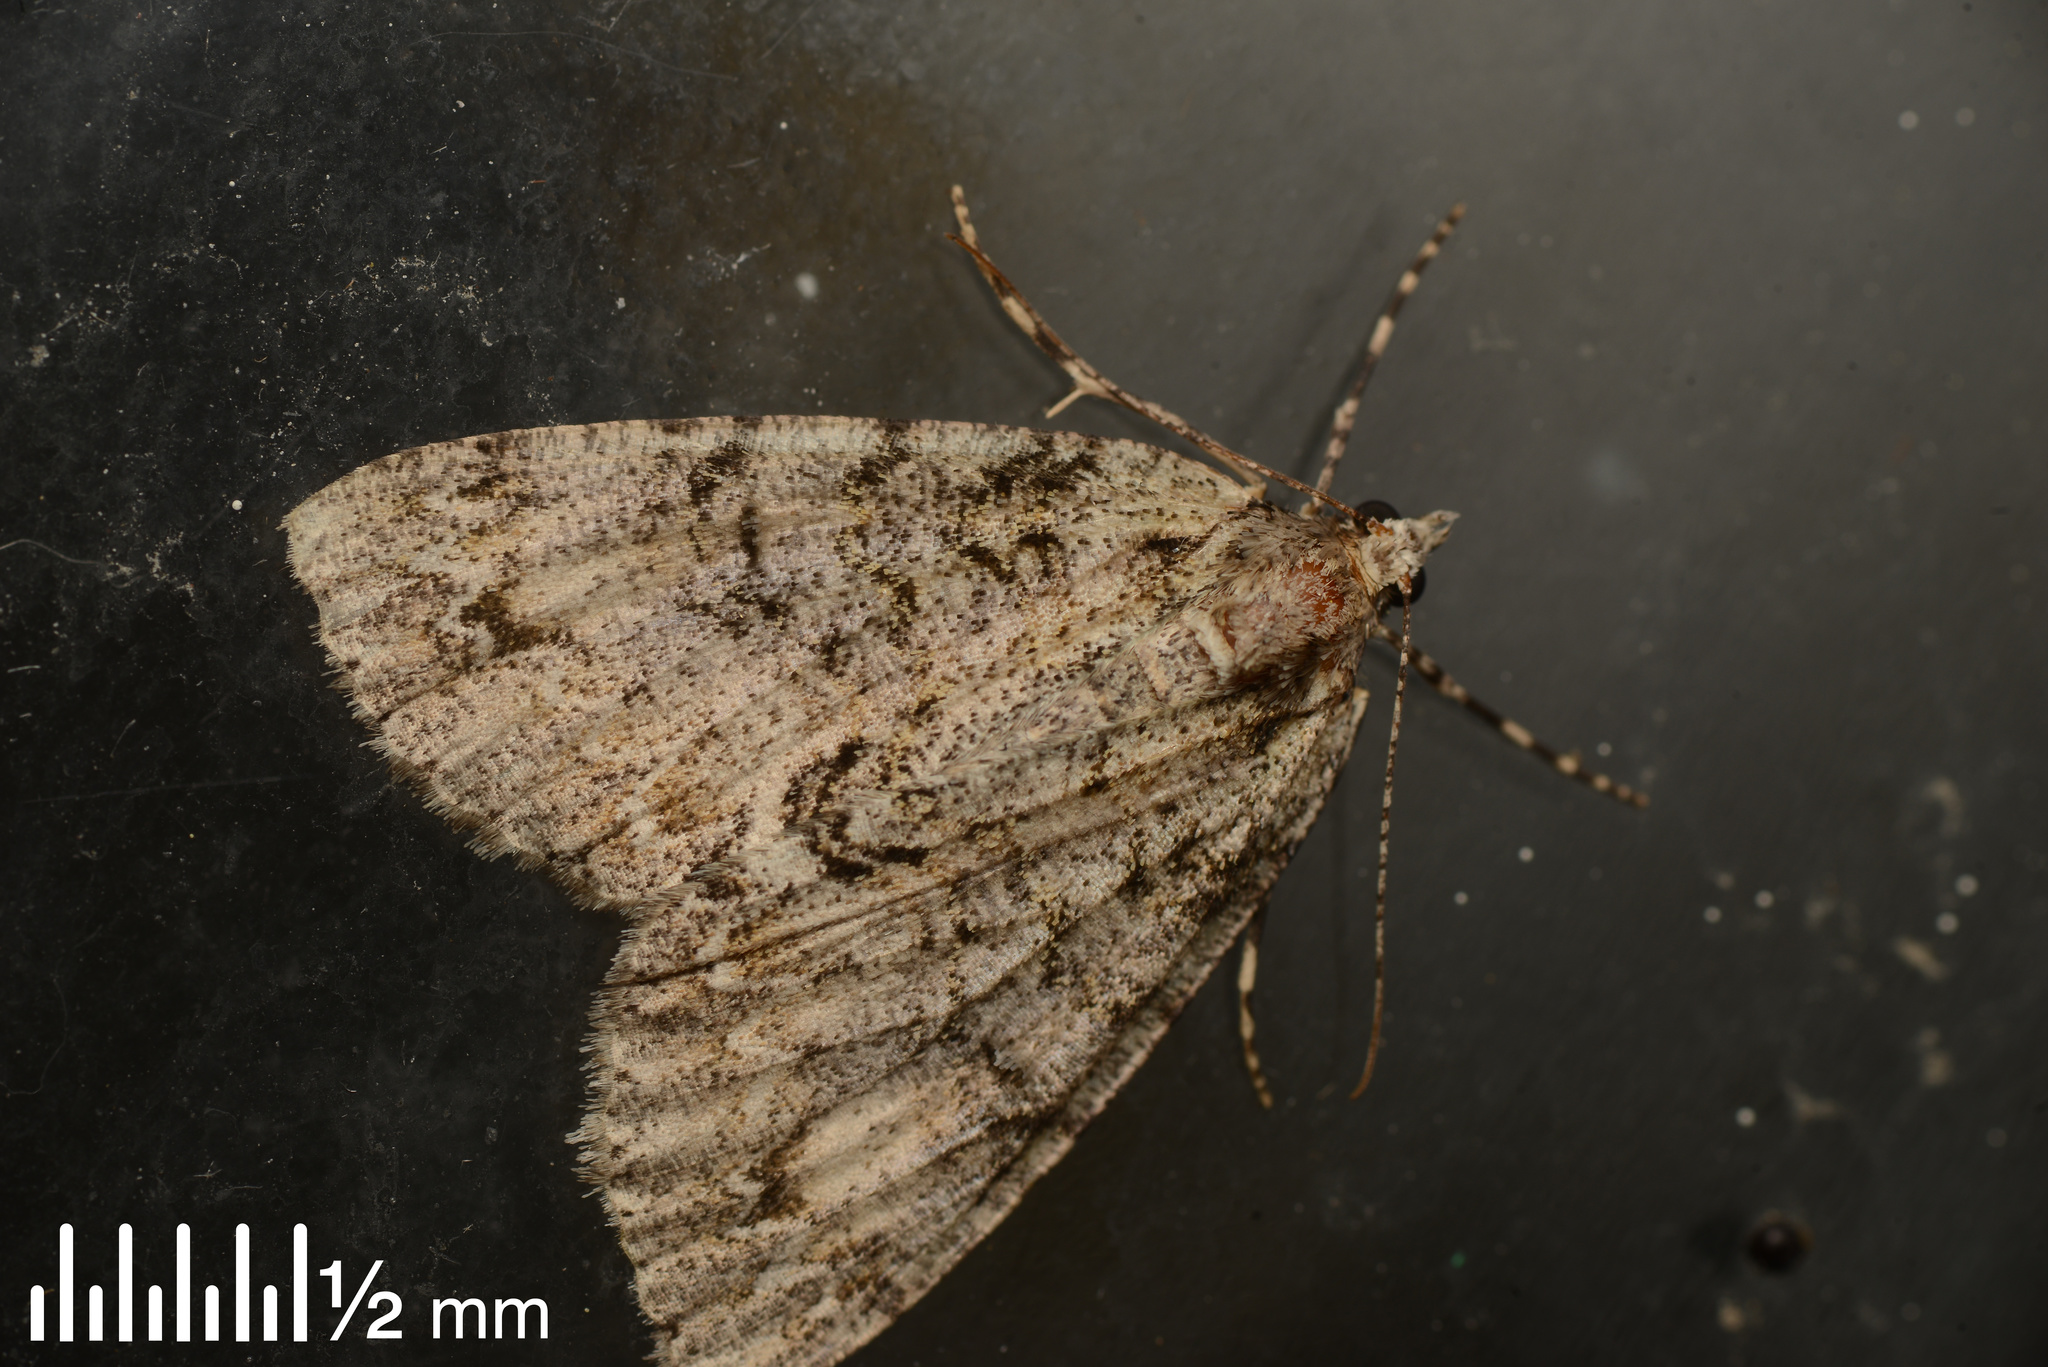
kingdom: Animalia
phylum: Arthropoda
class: Insecta
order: Lepidoptera
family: Geometridae
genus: Pseudocoremia
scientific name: Pseudocoremia suavis
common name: Common forest looper
